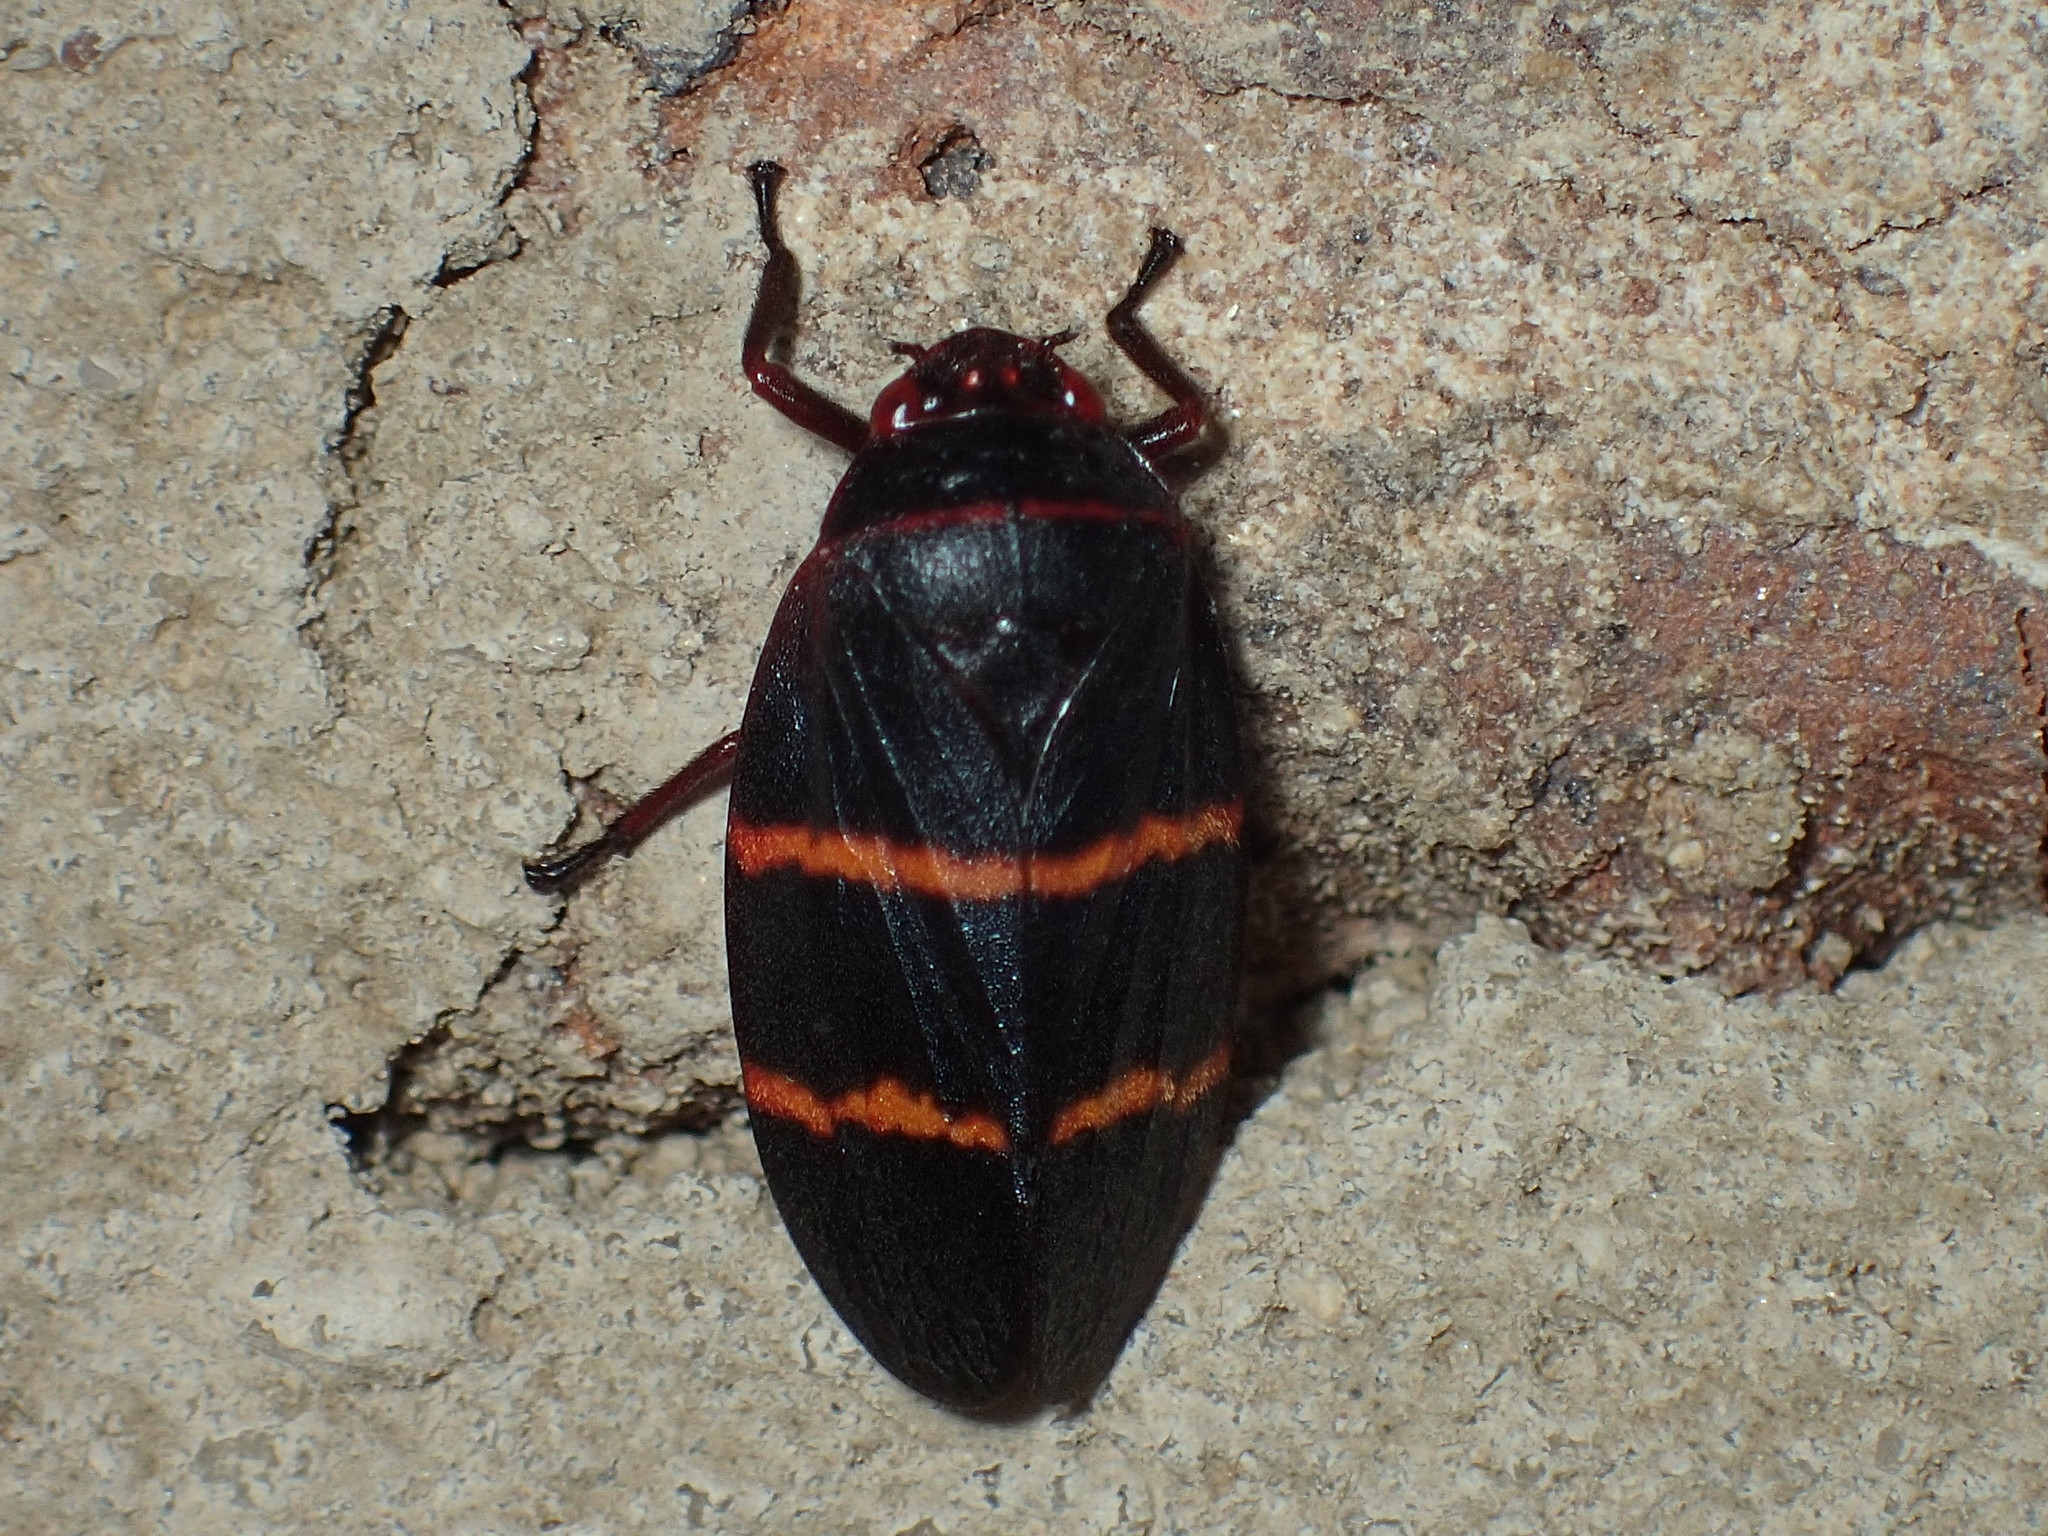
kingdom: Animalia
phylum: Arthropoda
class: Insecta
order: Hemiptera
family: Cercopidae
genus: Prosapia
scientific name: Prosapia bicincta
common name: Twolined spittlebug
